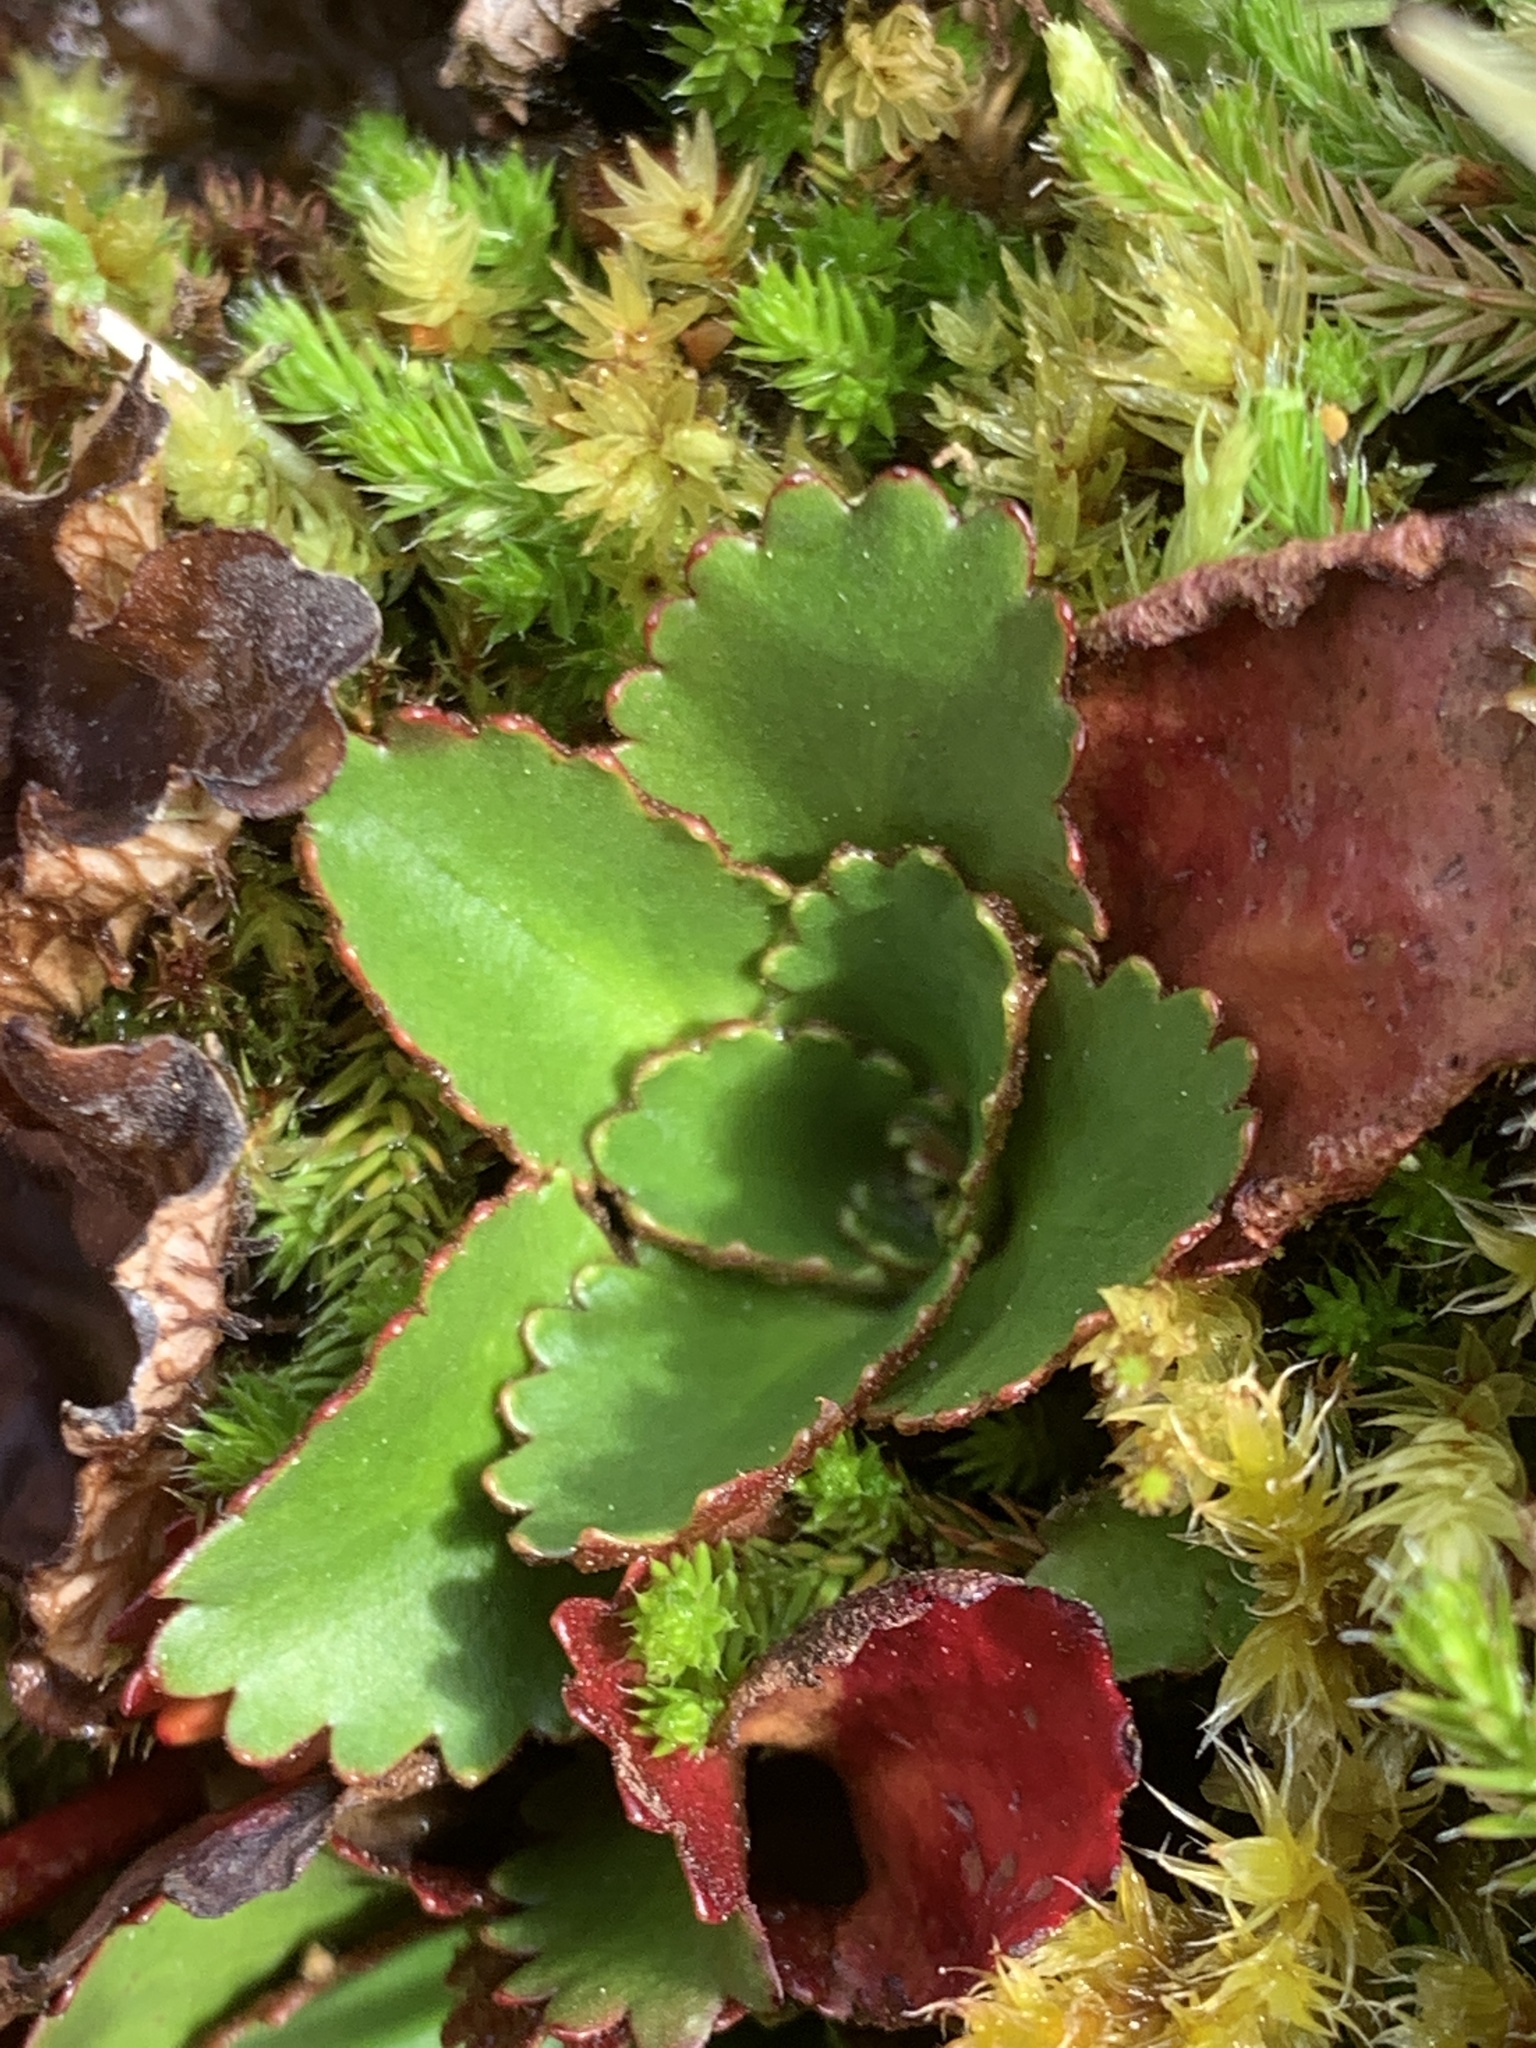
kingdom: Plantae
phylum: Tracheophyta
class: Magnoliopsida
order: Saxifragales
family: Saxifragaceae
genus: Micranthes
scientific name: Micranthes rufidula
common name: Rustyhair saxifrage
